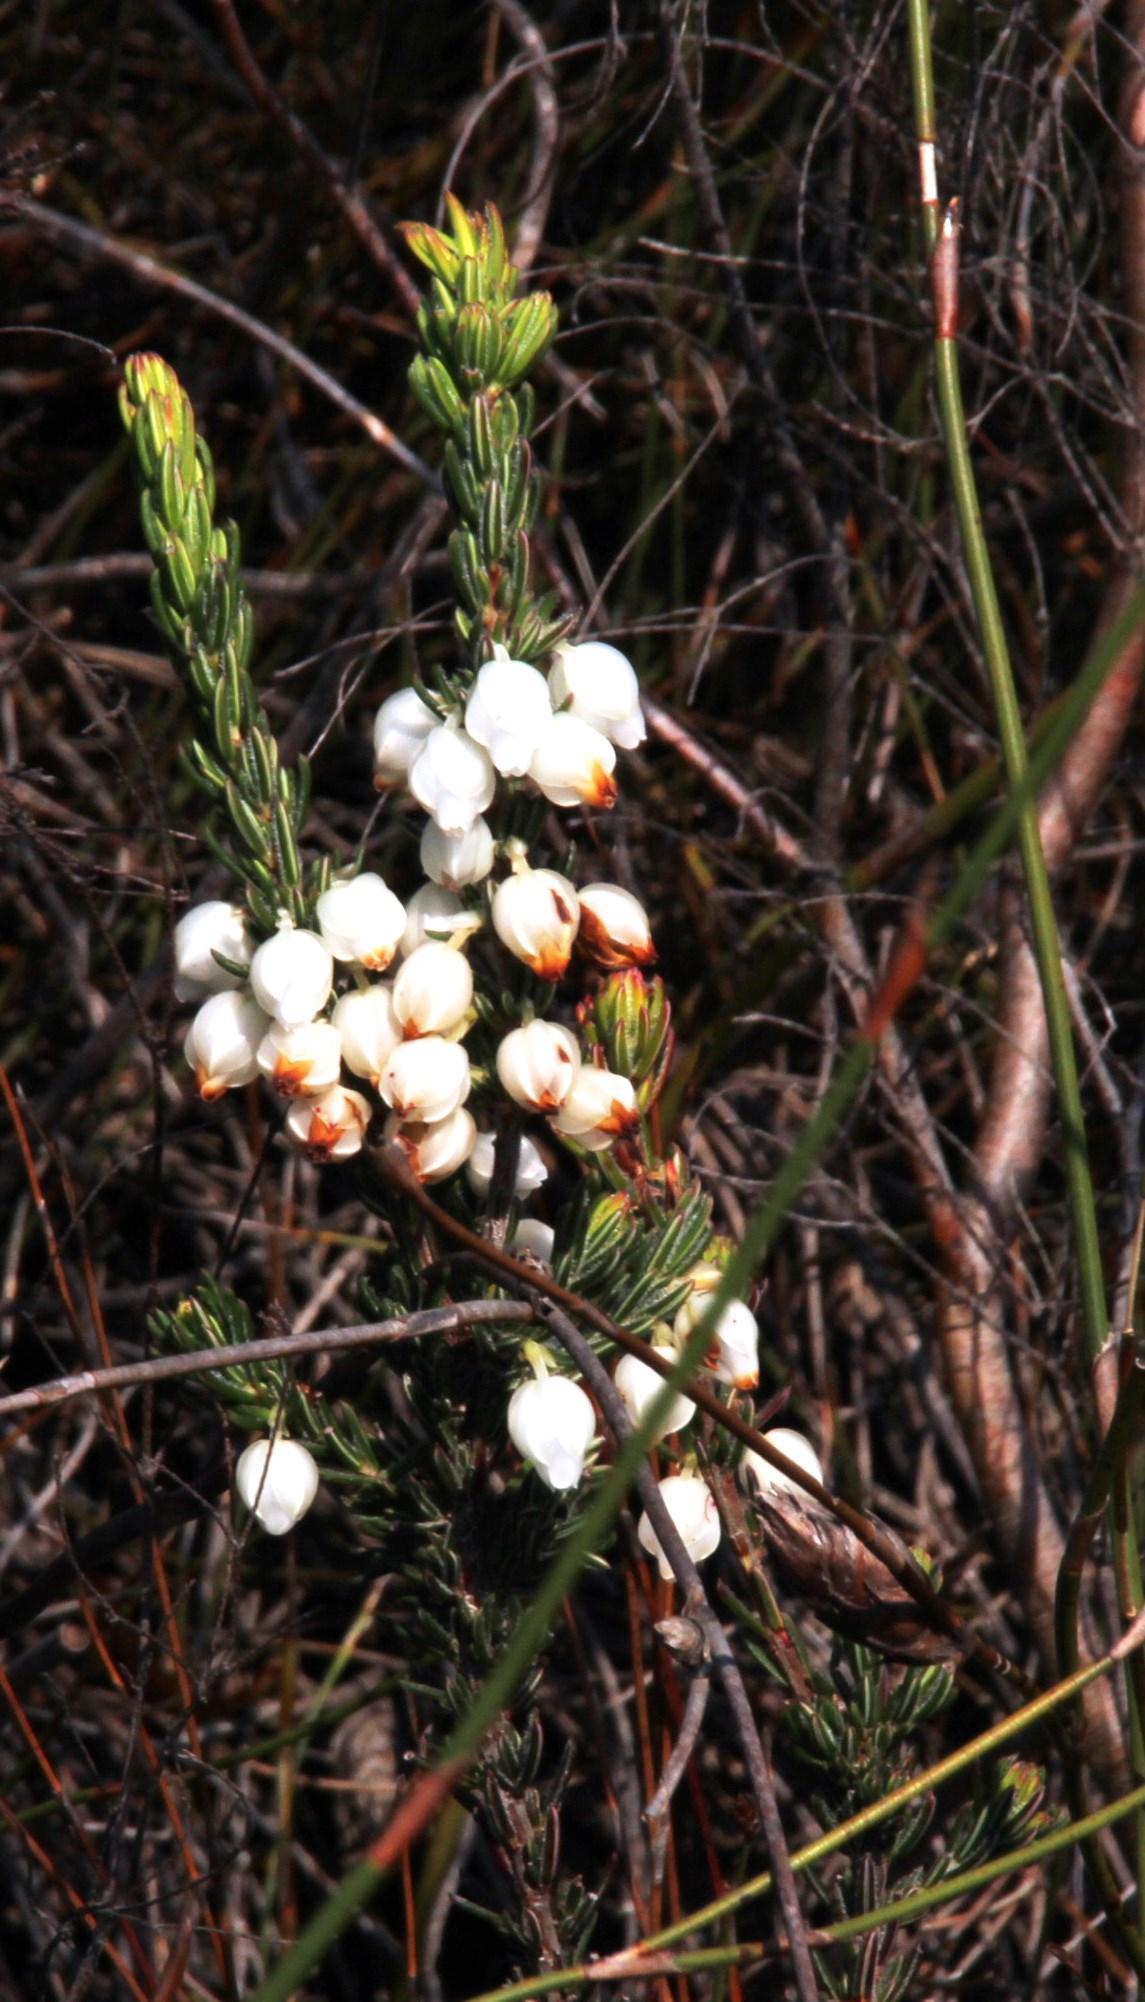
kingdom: Plantae
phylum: Tracheophyta
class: Magnoliopsida
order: Ericales
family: Ericaceae
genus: Erica
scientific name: Erica grisbrookii
